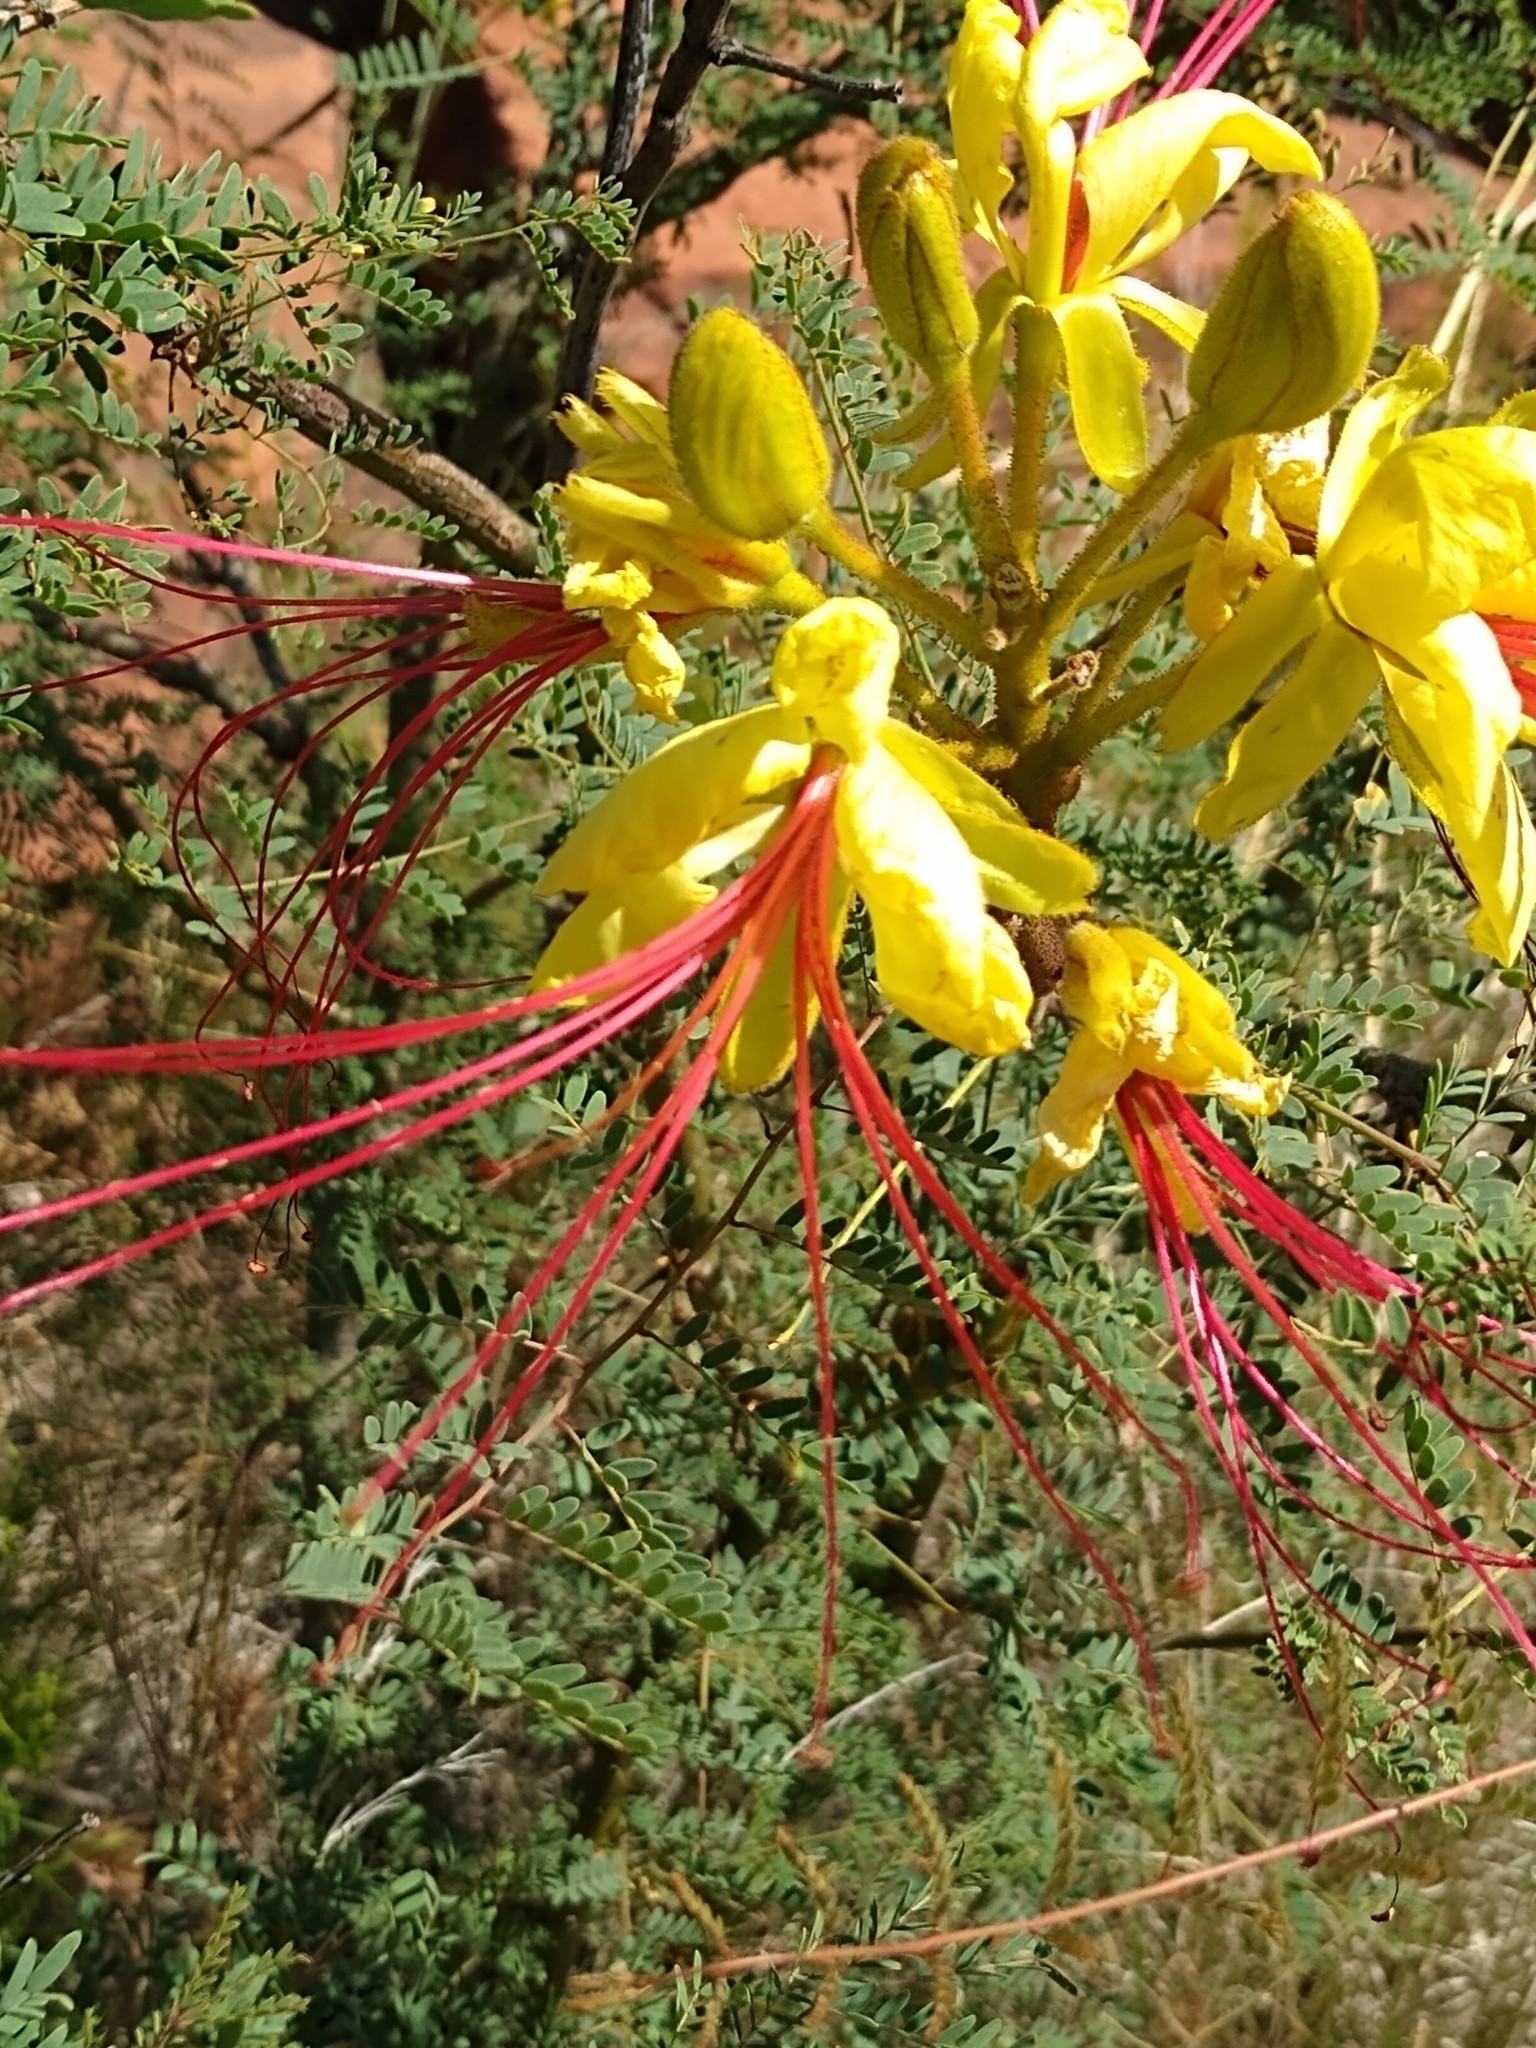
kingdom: Plantae
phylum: Tracheophyta
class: Magnoliopsida
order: Fabales
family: Fabaceae
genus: Erythrostemon
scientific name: Erythrostemon gilliesii
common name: Bird-of-paradise shrub
